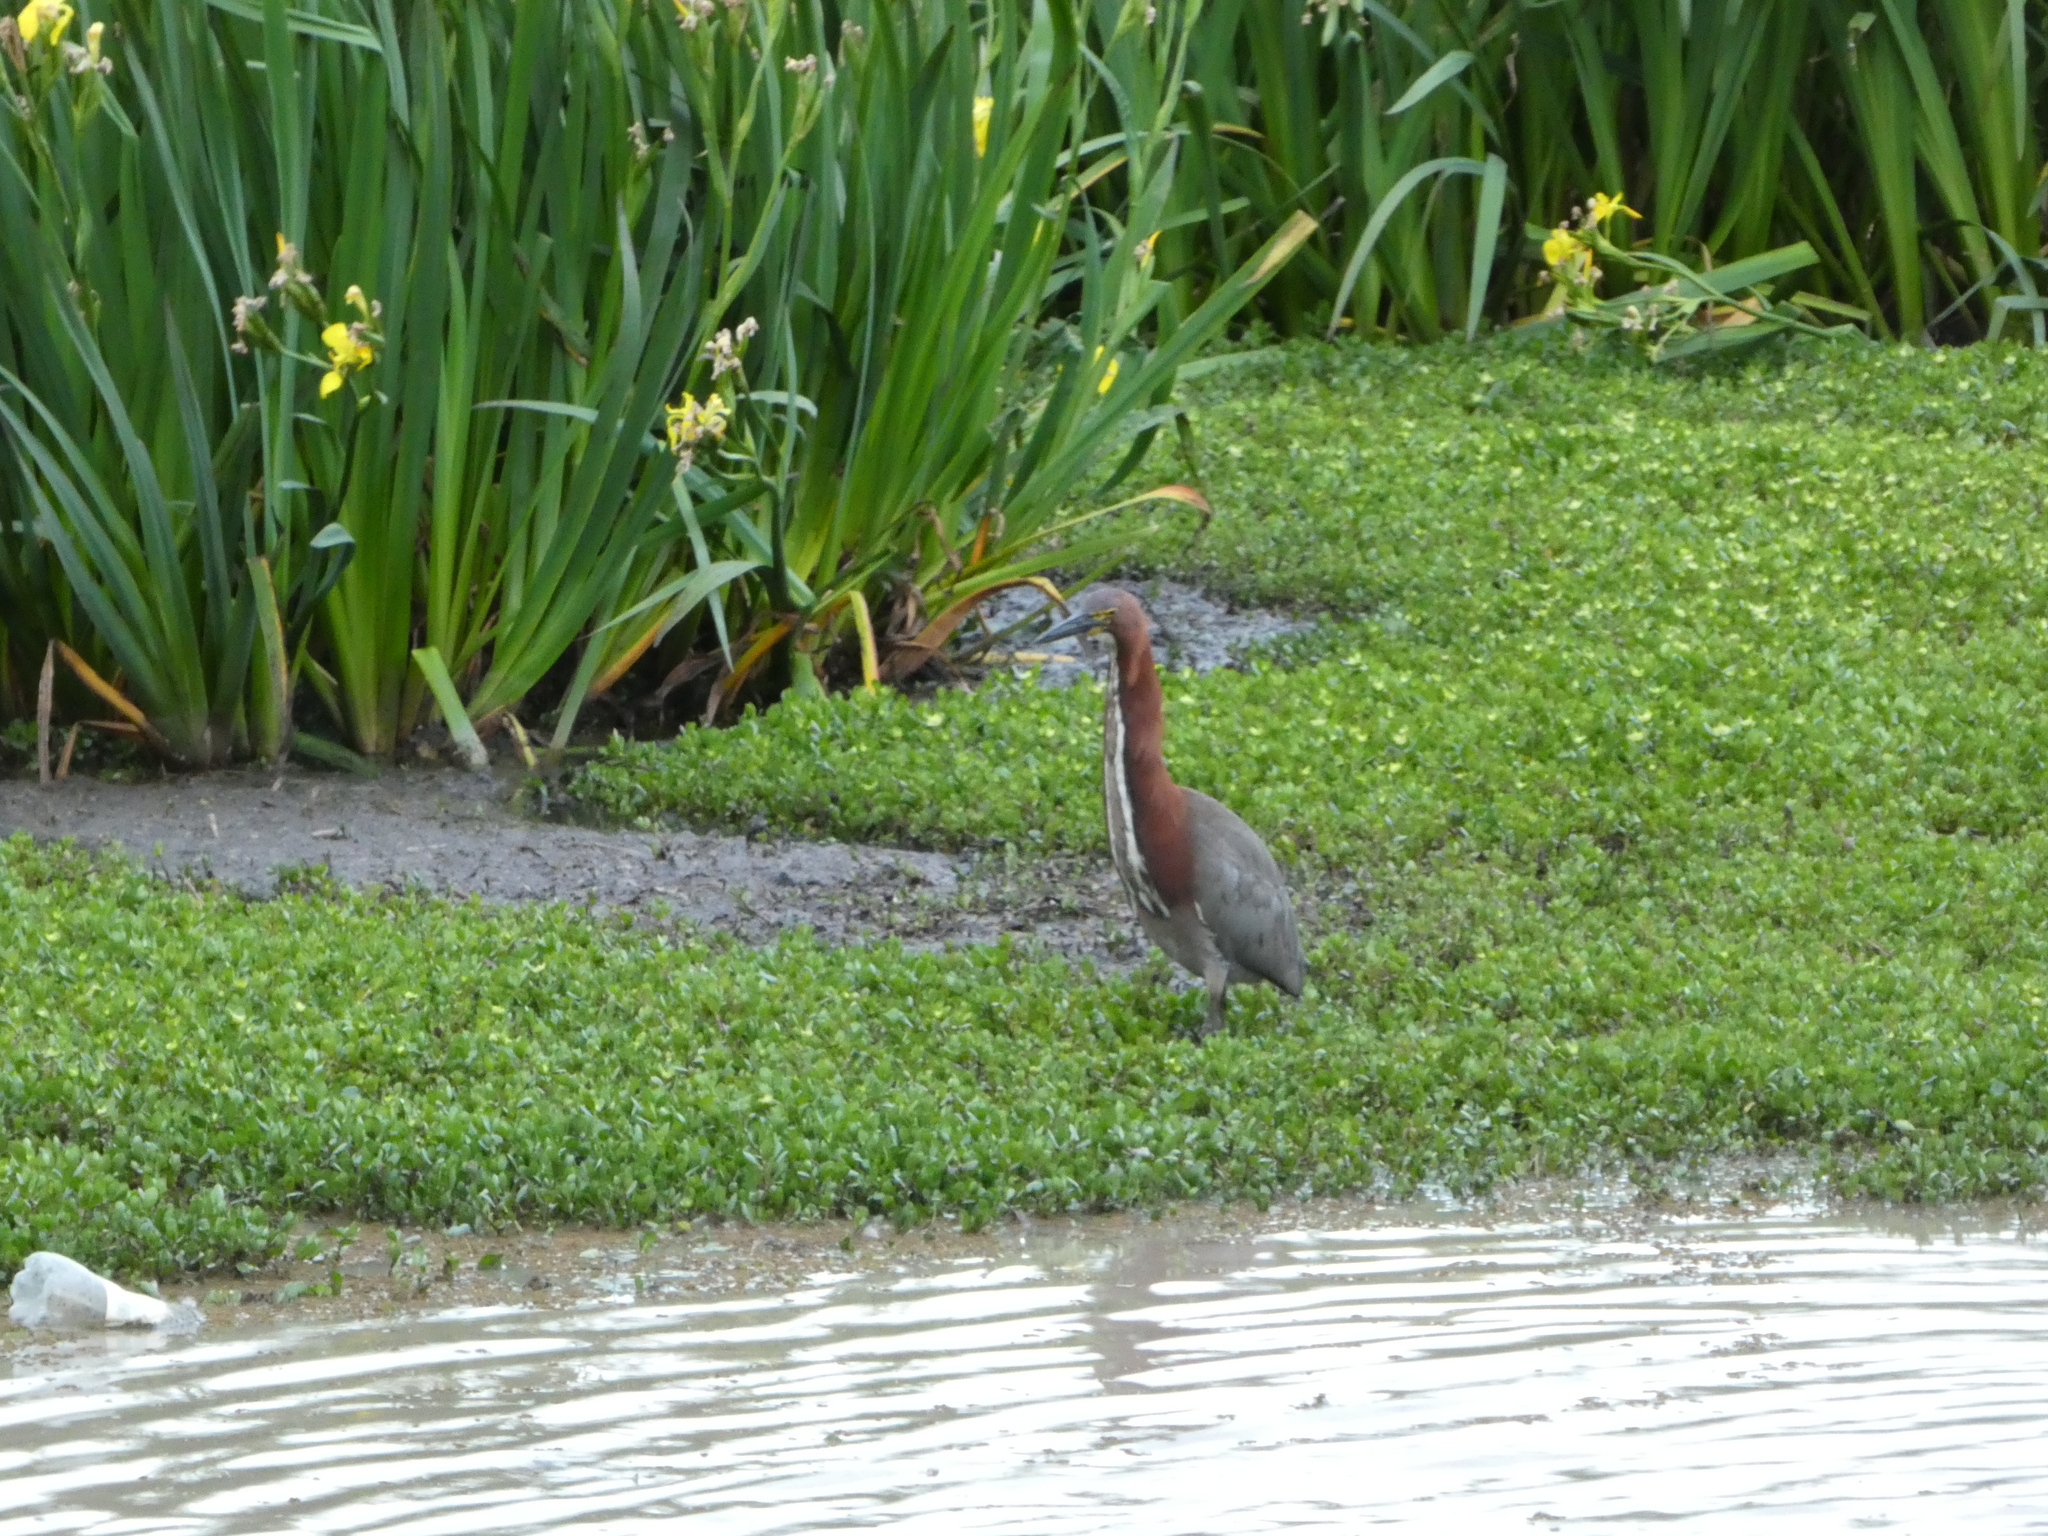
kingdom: Animalia
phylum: Chordata
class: Aves
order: Pelecaniformes
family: Ardeidae
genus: Tigrisoma
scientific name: Tigrisoma lineatum
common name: Rufescent tiger-heron
